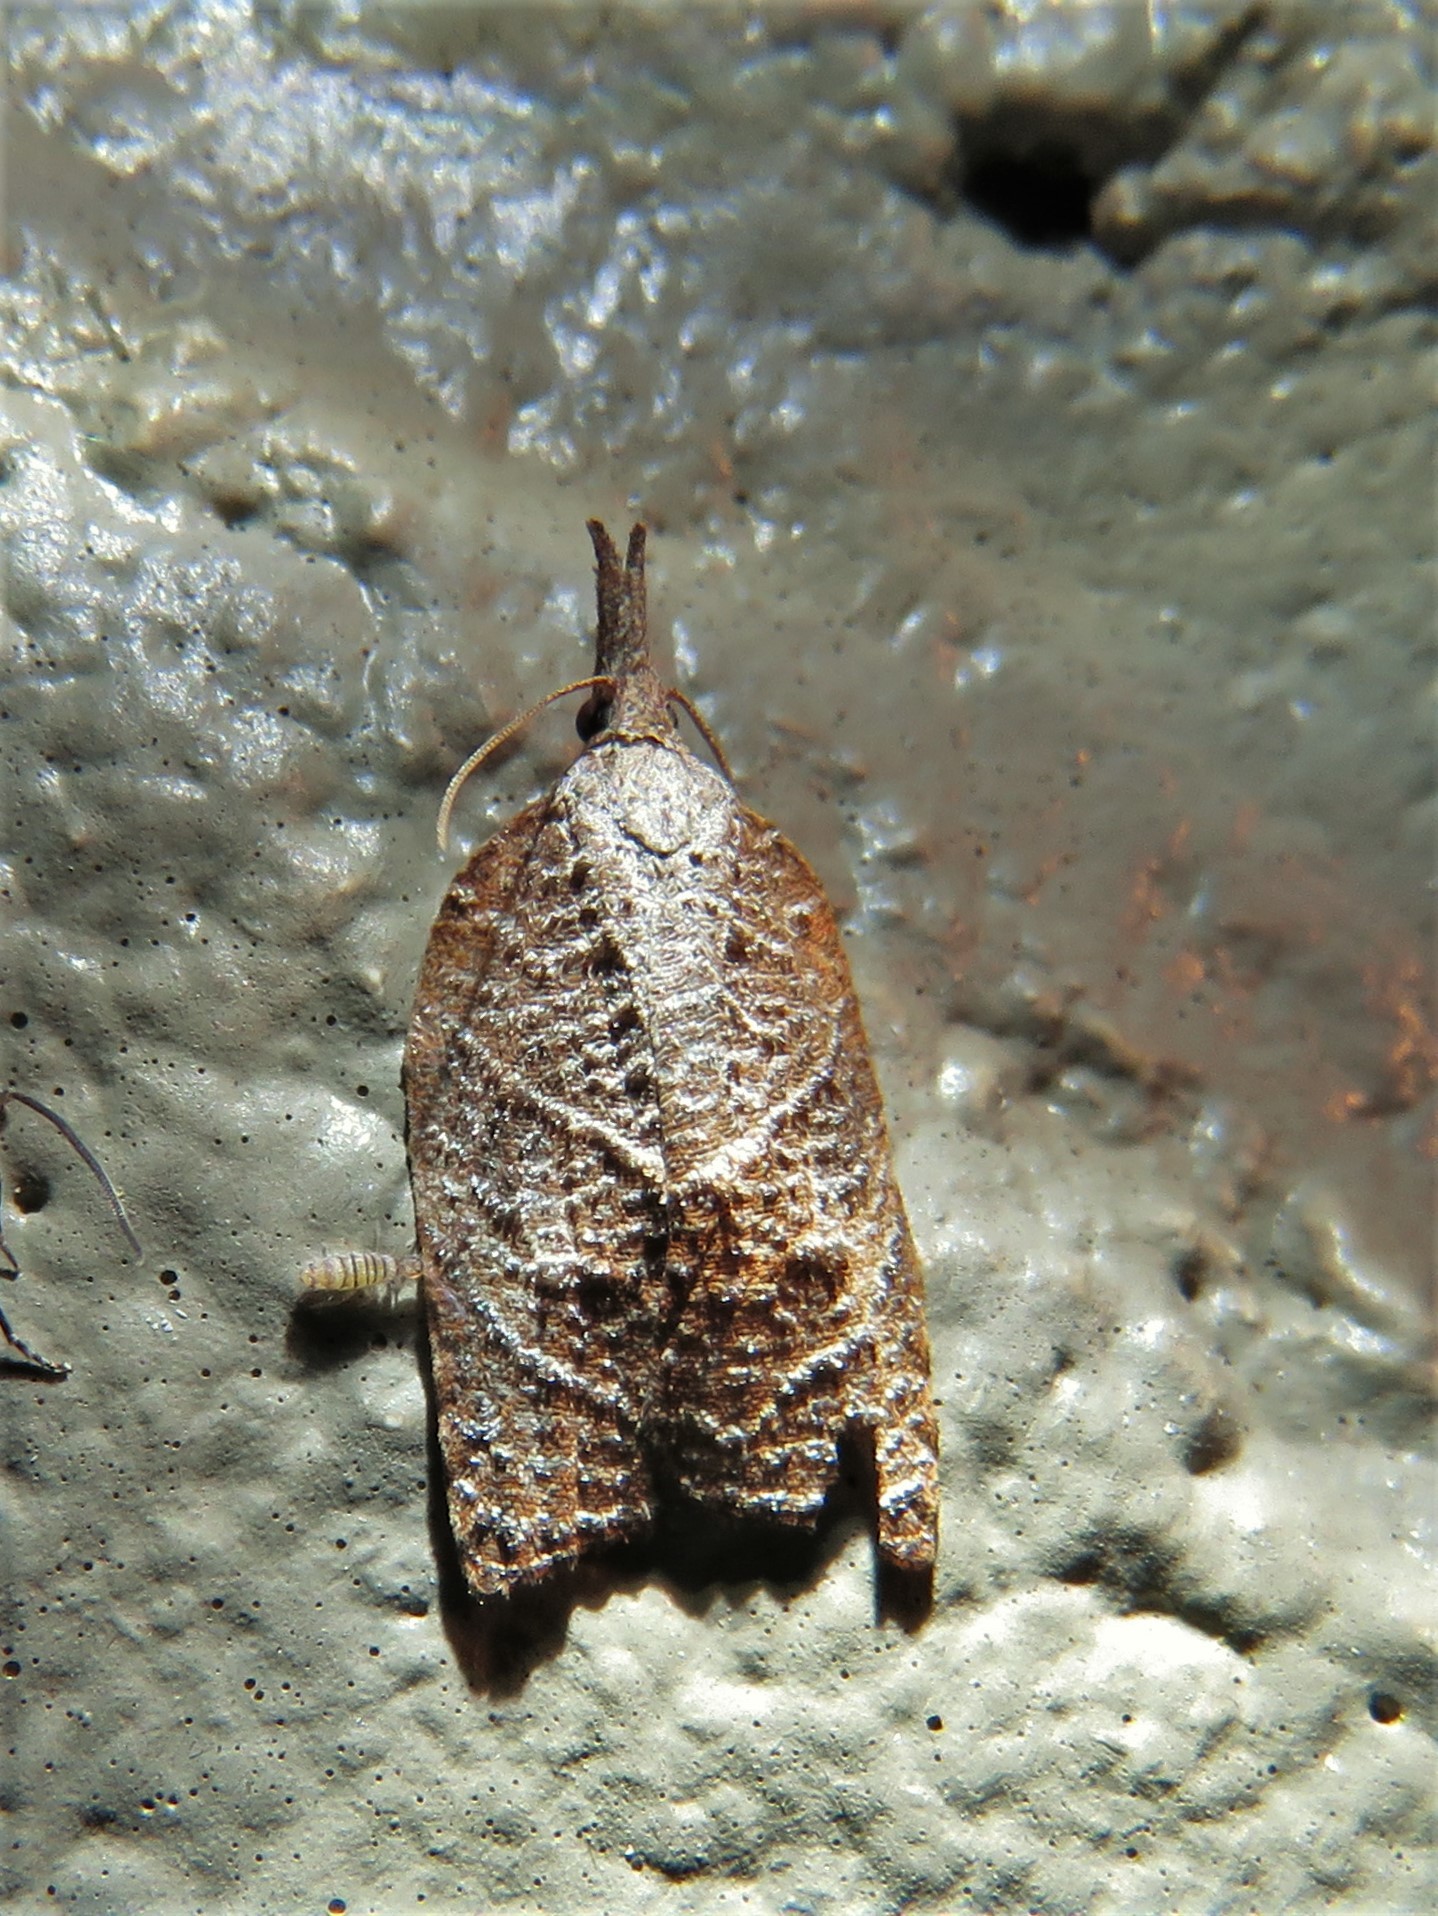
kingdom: Animalia
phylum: Arthropoda
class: Insecta
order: Lepidoptera
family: Tortricidae
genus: Platynota
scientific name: Platynota rostrana
